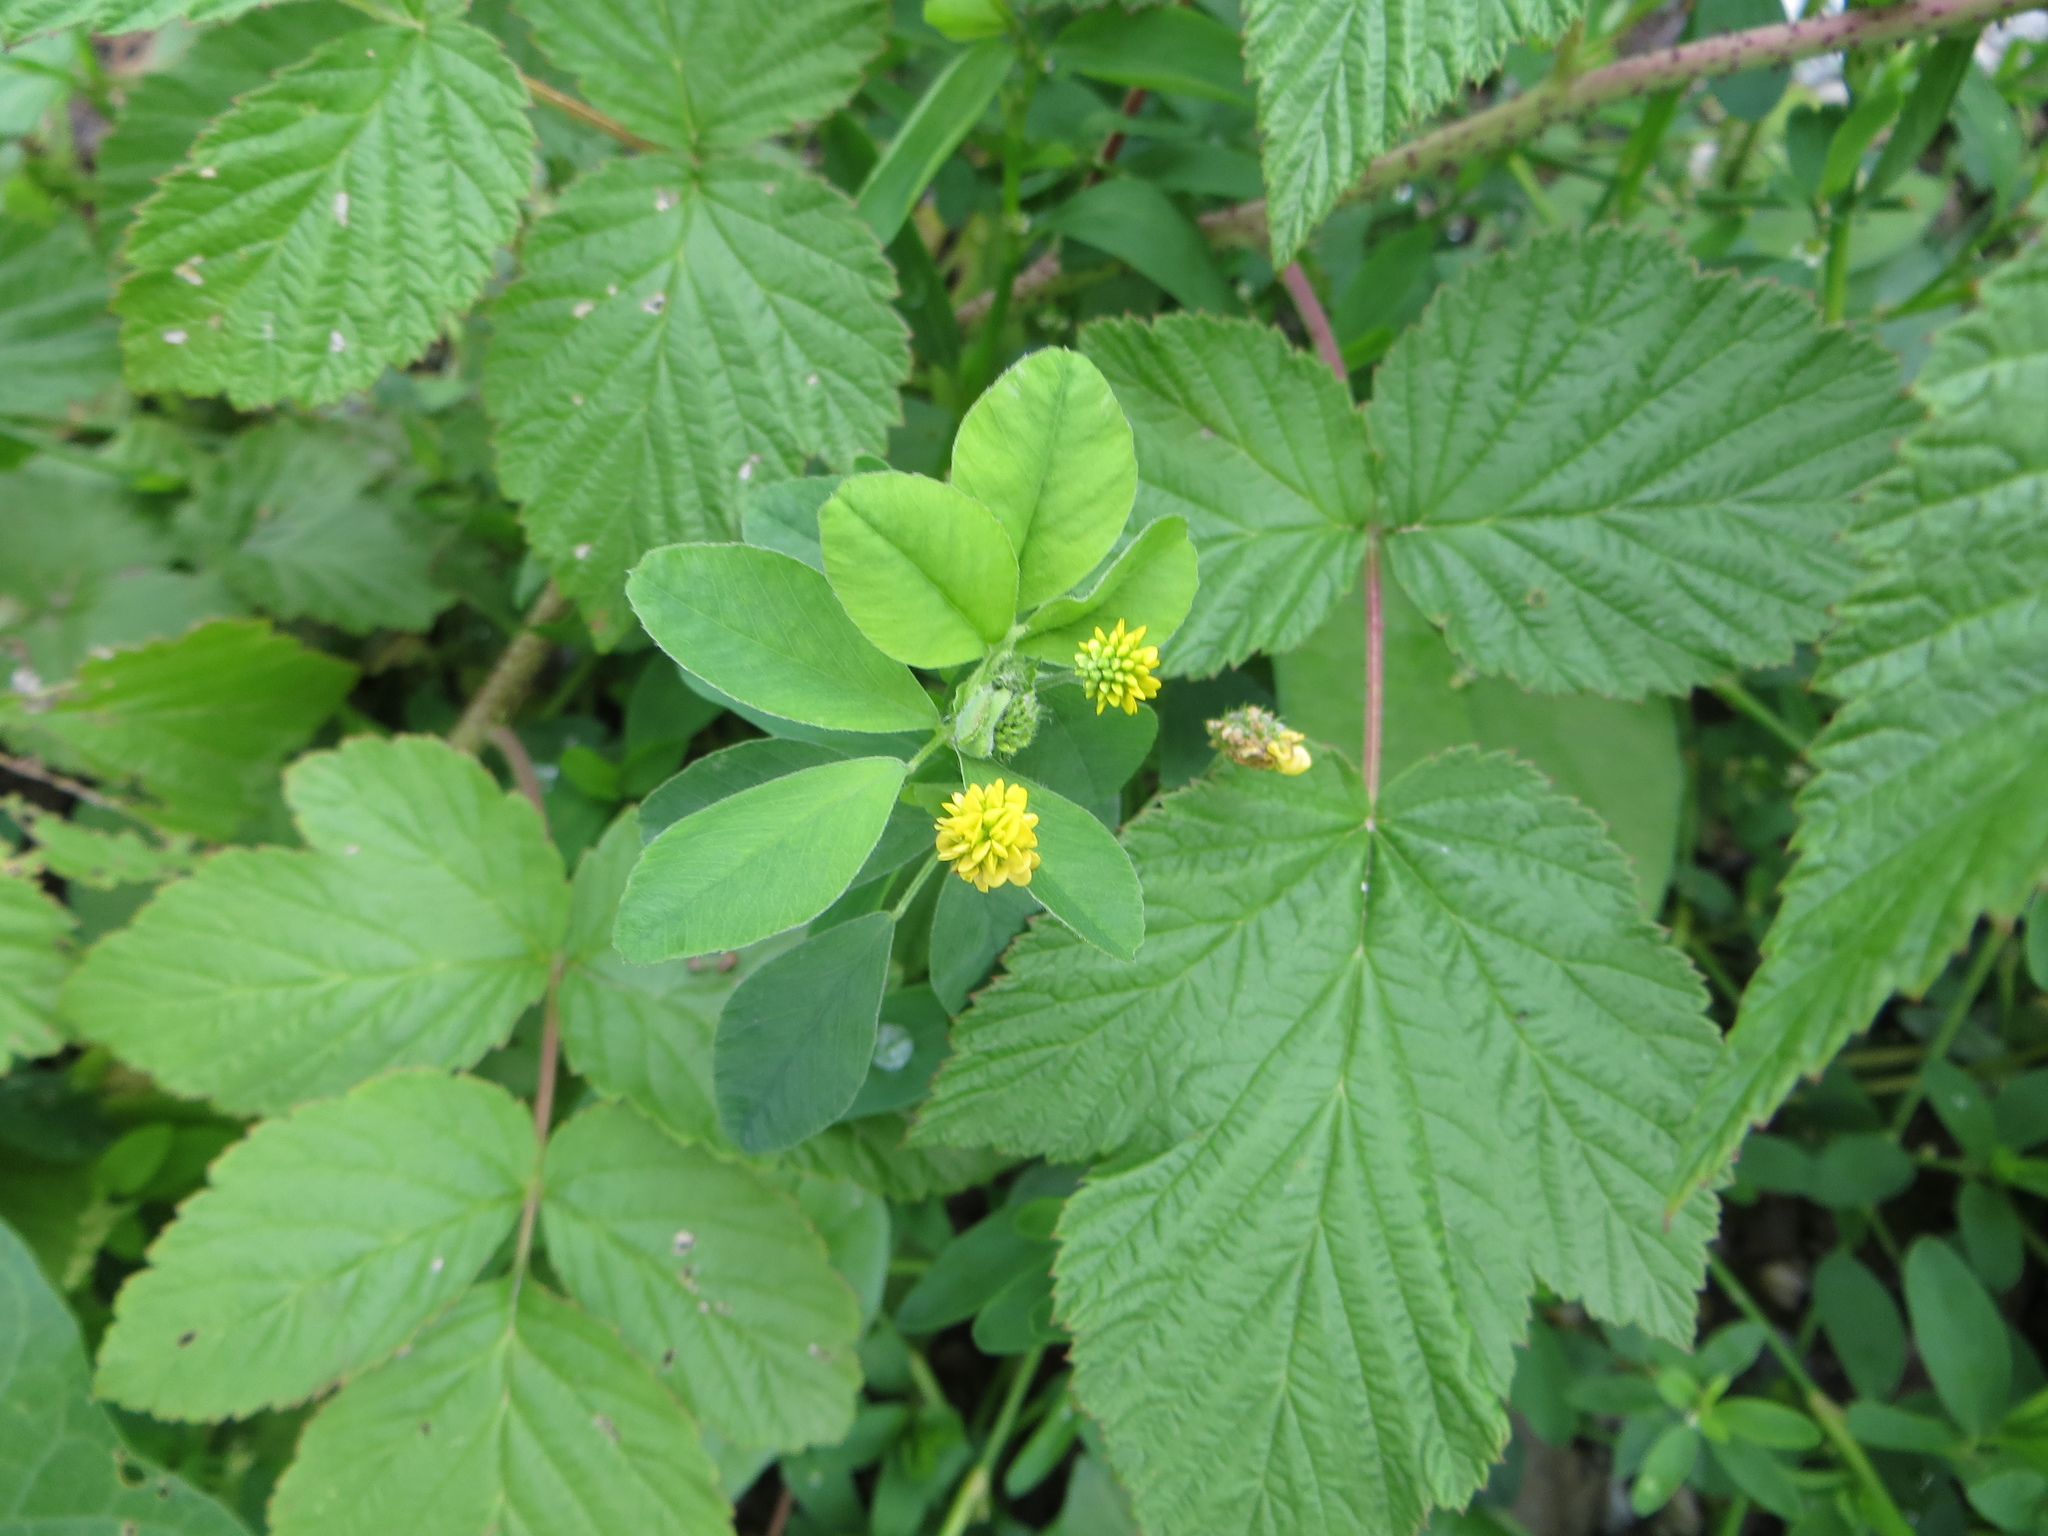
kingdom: Plantae
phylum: Tracheophyta
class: Magnoliopsida
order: Fabales
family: Fabaceae
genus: Medicago
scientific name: Medicago lupulina
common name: Black medick
